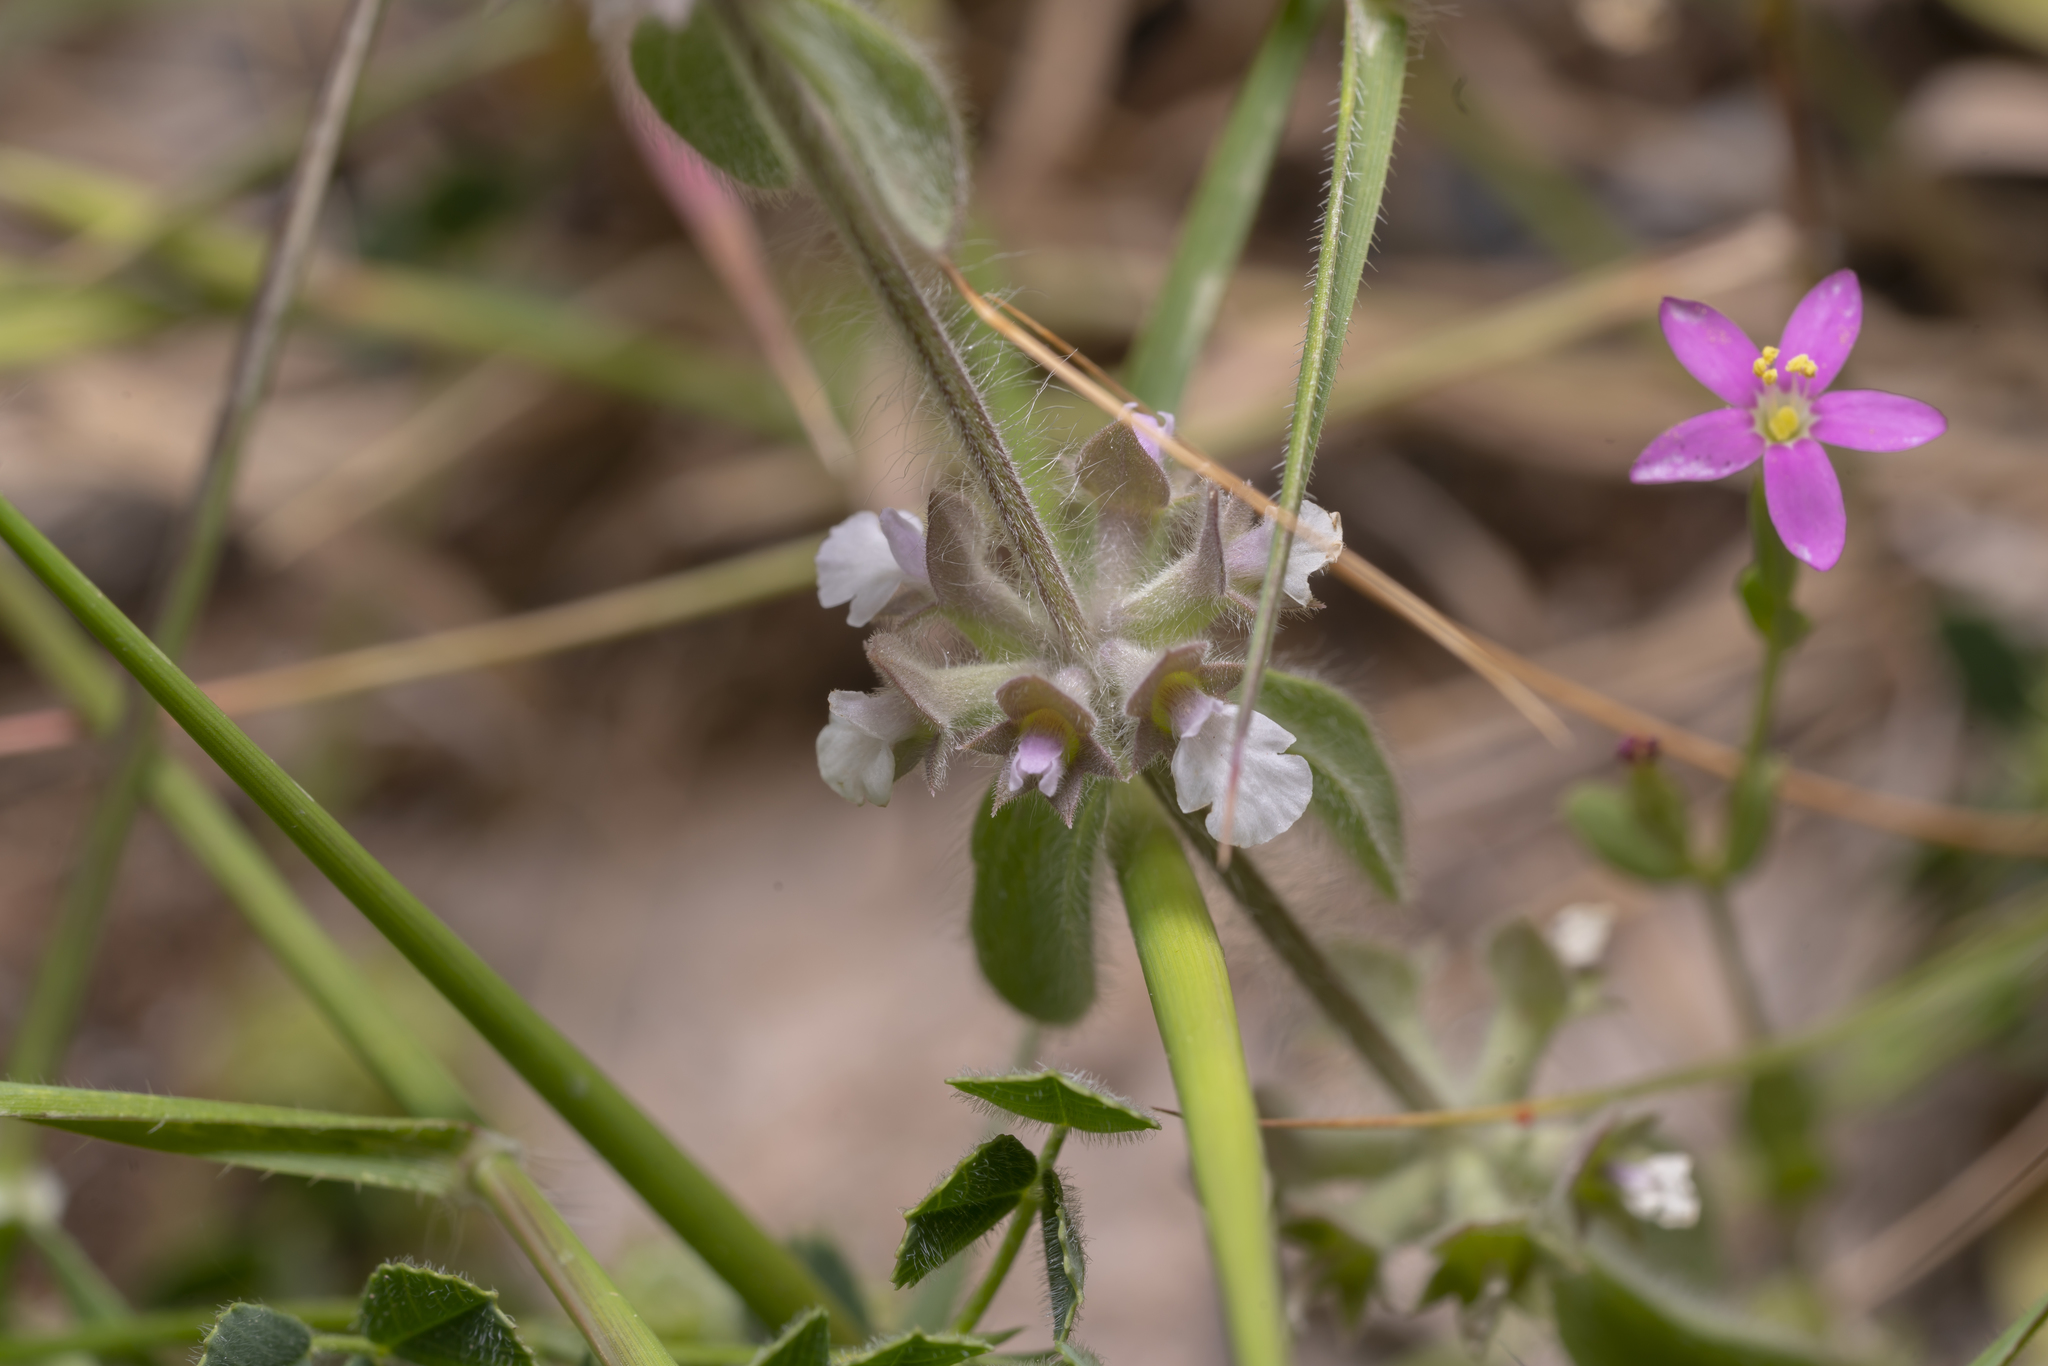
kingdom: Plantae
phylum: Tracheophyta
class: Magnoliopsida
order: Lamiales
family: Lamiaceae
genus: Sideritis
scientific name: Sideritis romana
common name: Simplebeak ironwort
